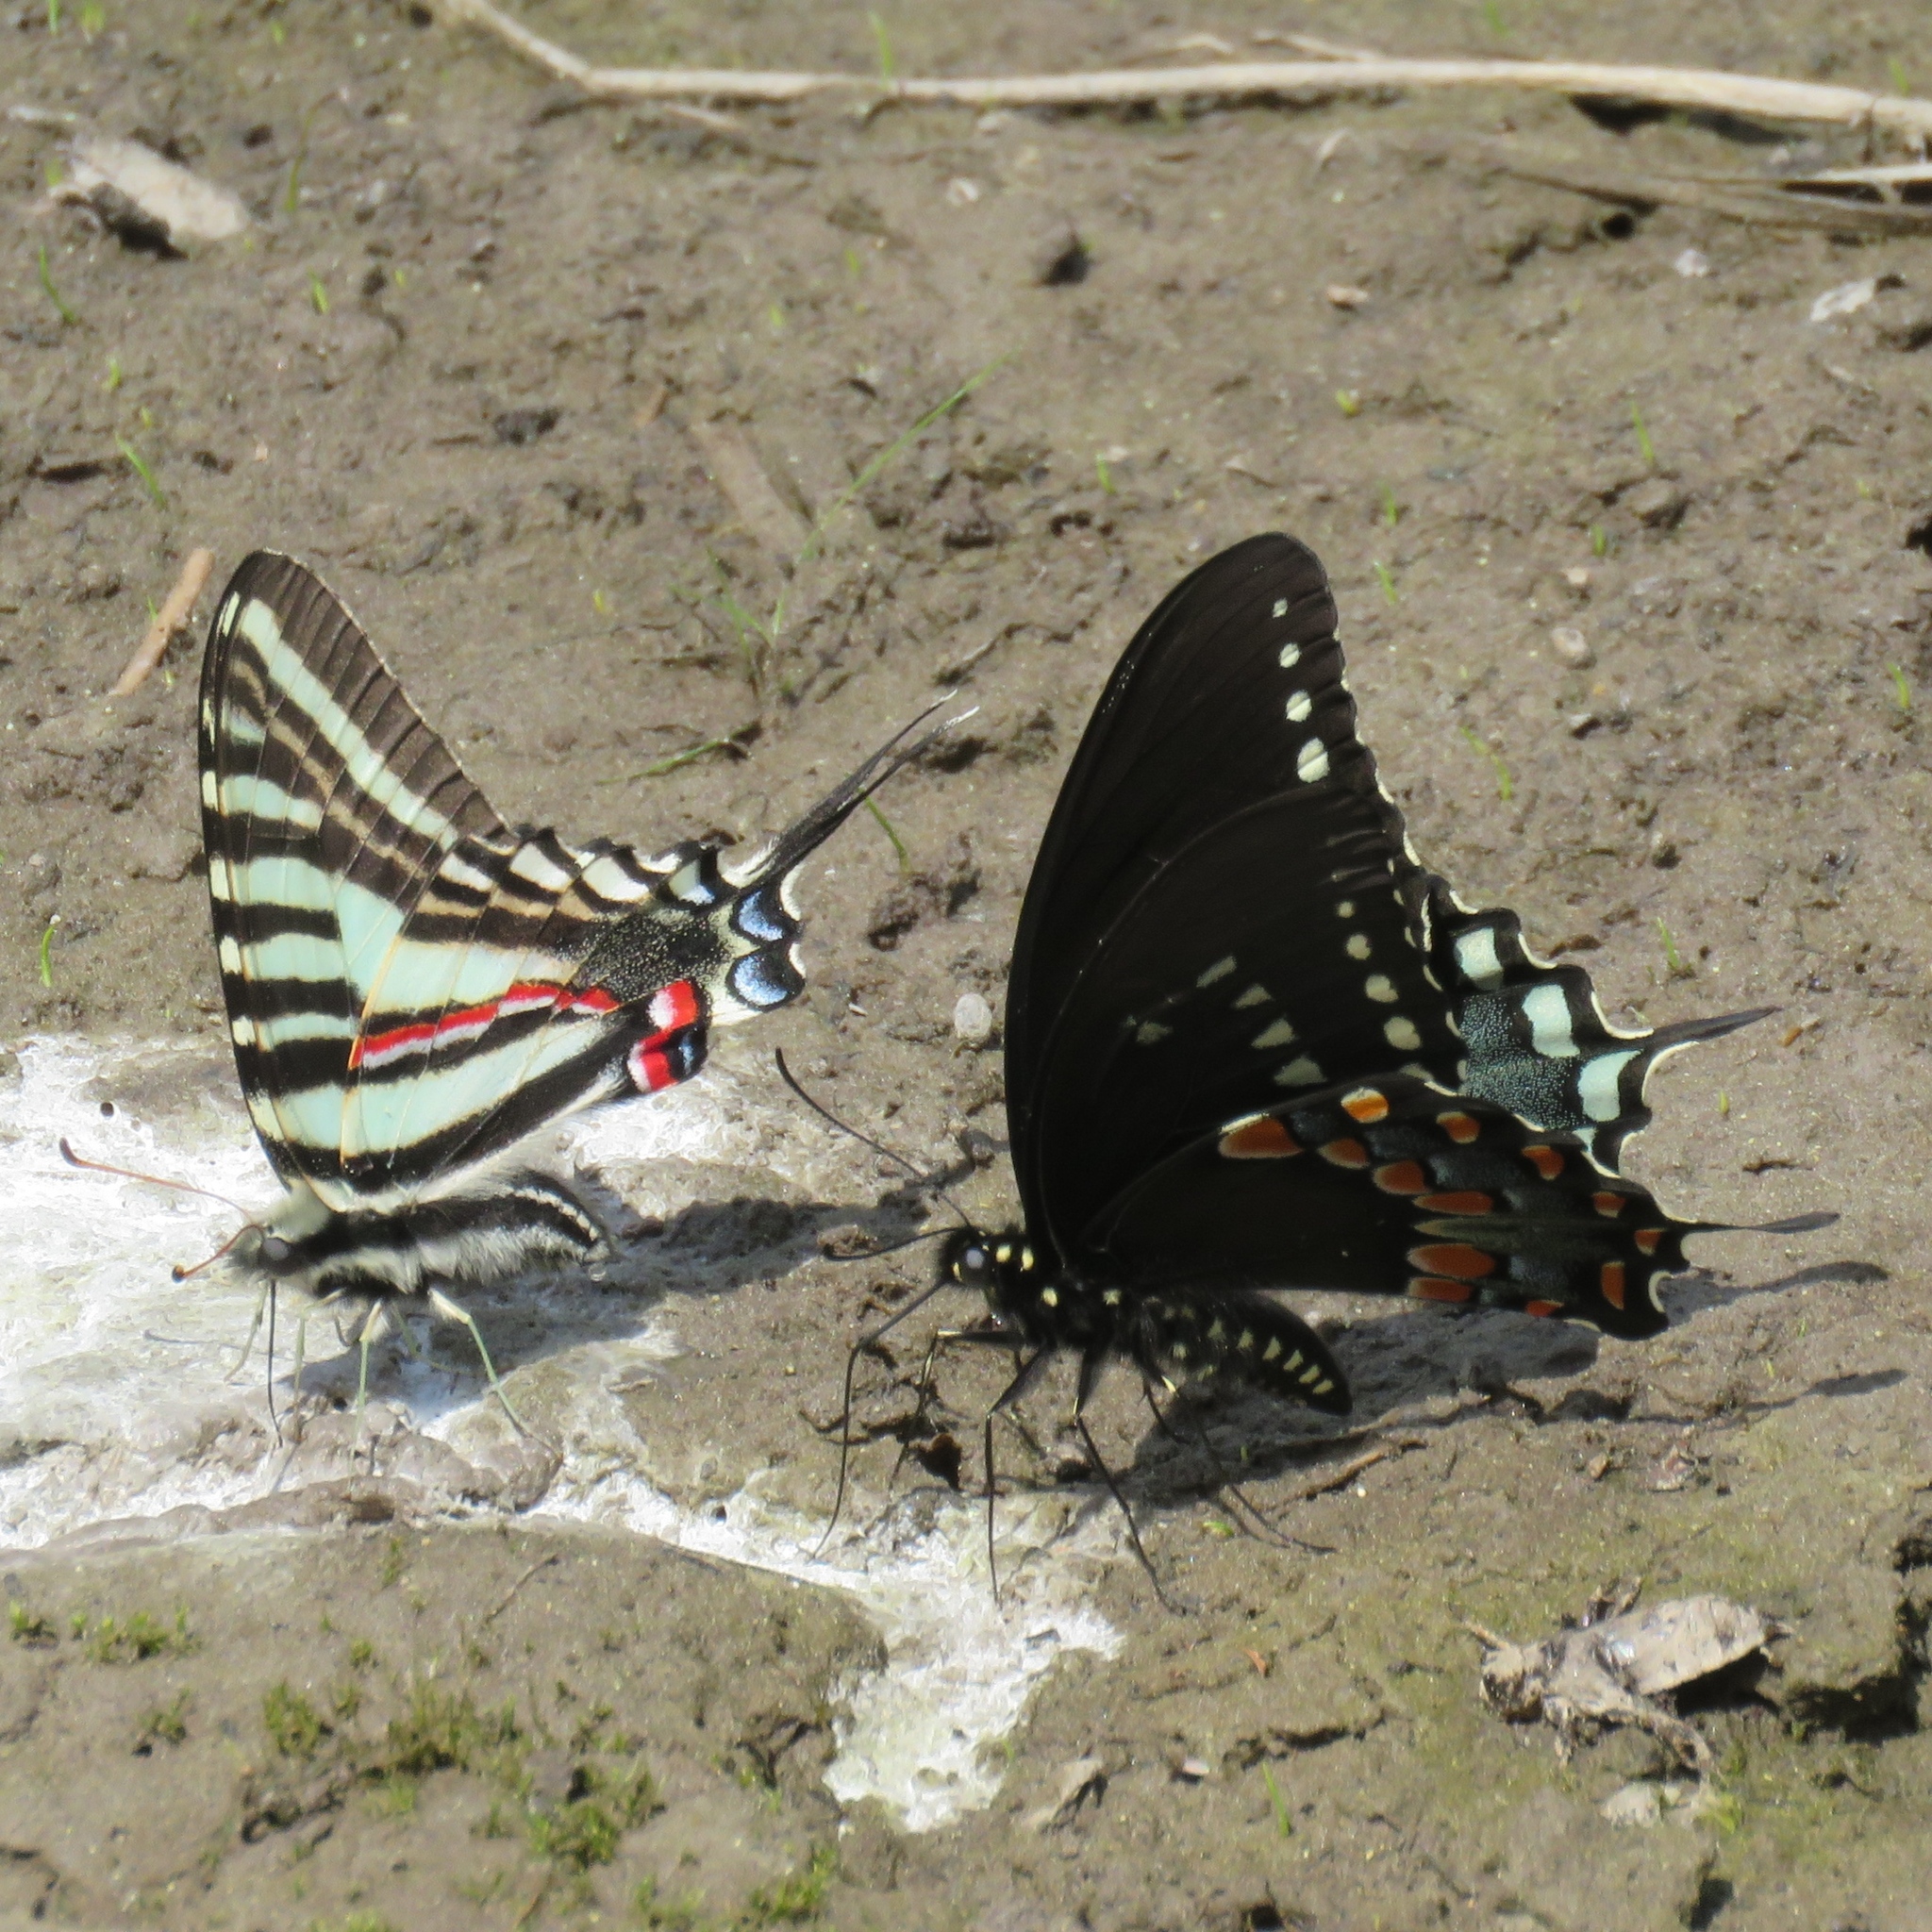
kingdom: Animalia
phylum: Arthropoda
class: Insecta
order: Lepidoptera
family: Papilionidae
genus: Protographium
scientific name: Protographium marcellus
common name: Zebra swallowtail
